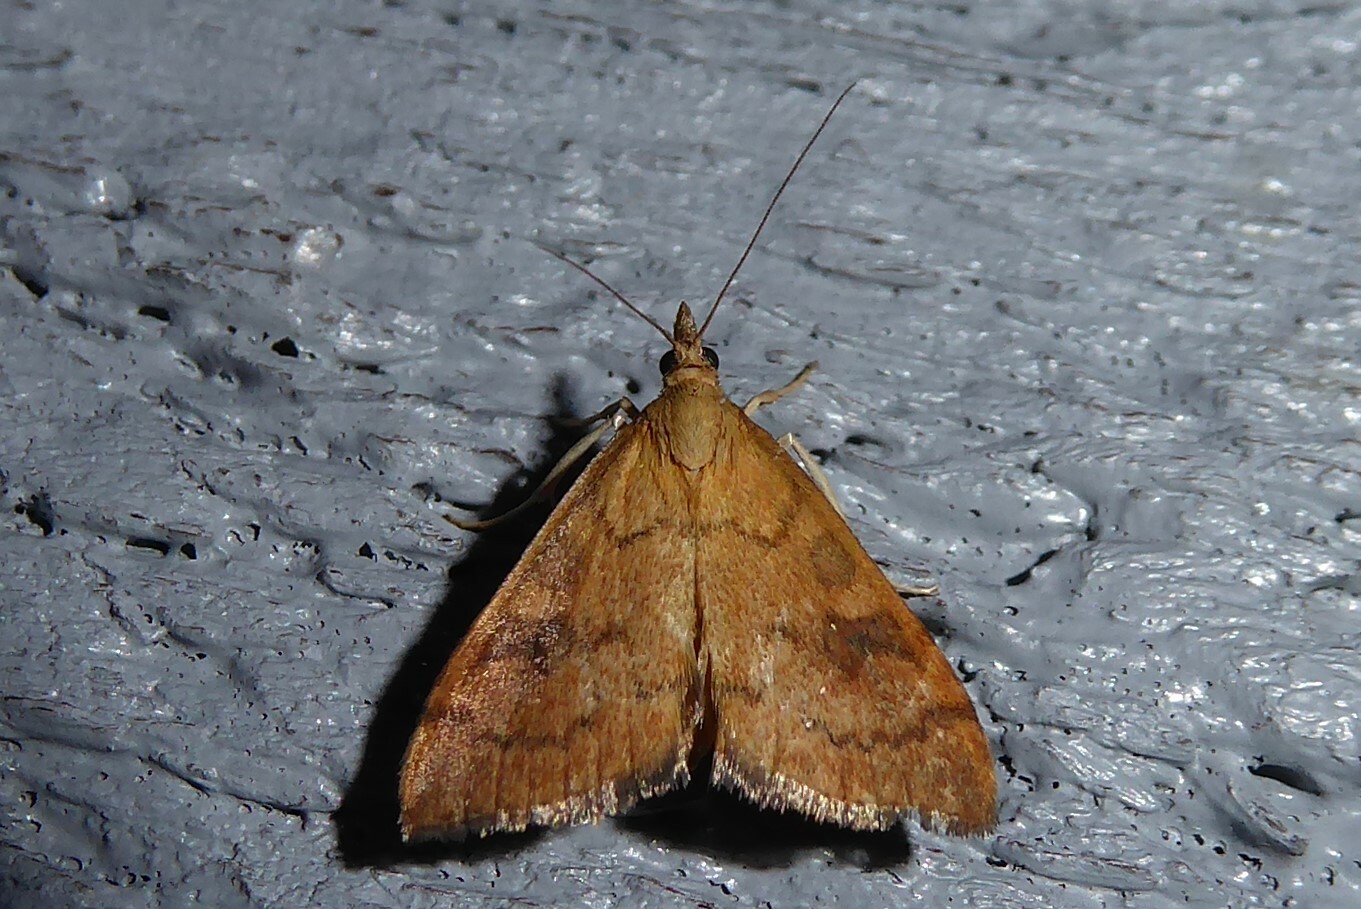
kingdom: Animalia
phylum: Arthropoda
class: Insecta
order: Lepidoptera
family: Crambidae
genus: Udea
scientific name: Udea Mnesictena flavidalis
